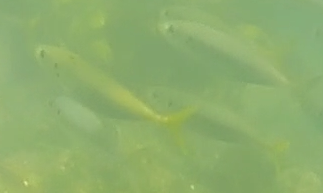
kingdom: Animalia
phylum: Chordata
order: Perciformes
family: Carangidae
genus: Trachurus
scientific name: Trachurus novaezelandiae
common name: Yellowtail horse mackerel
